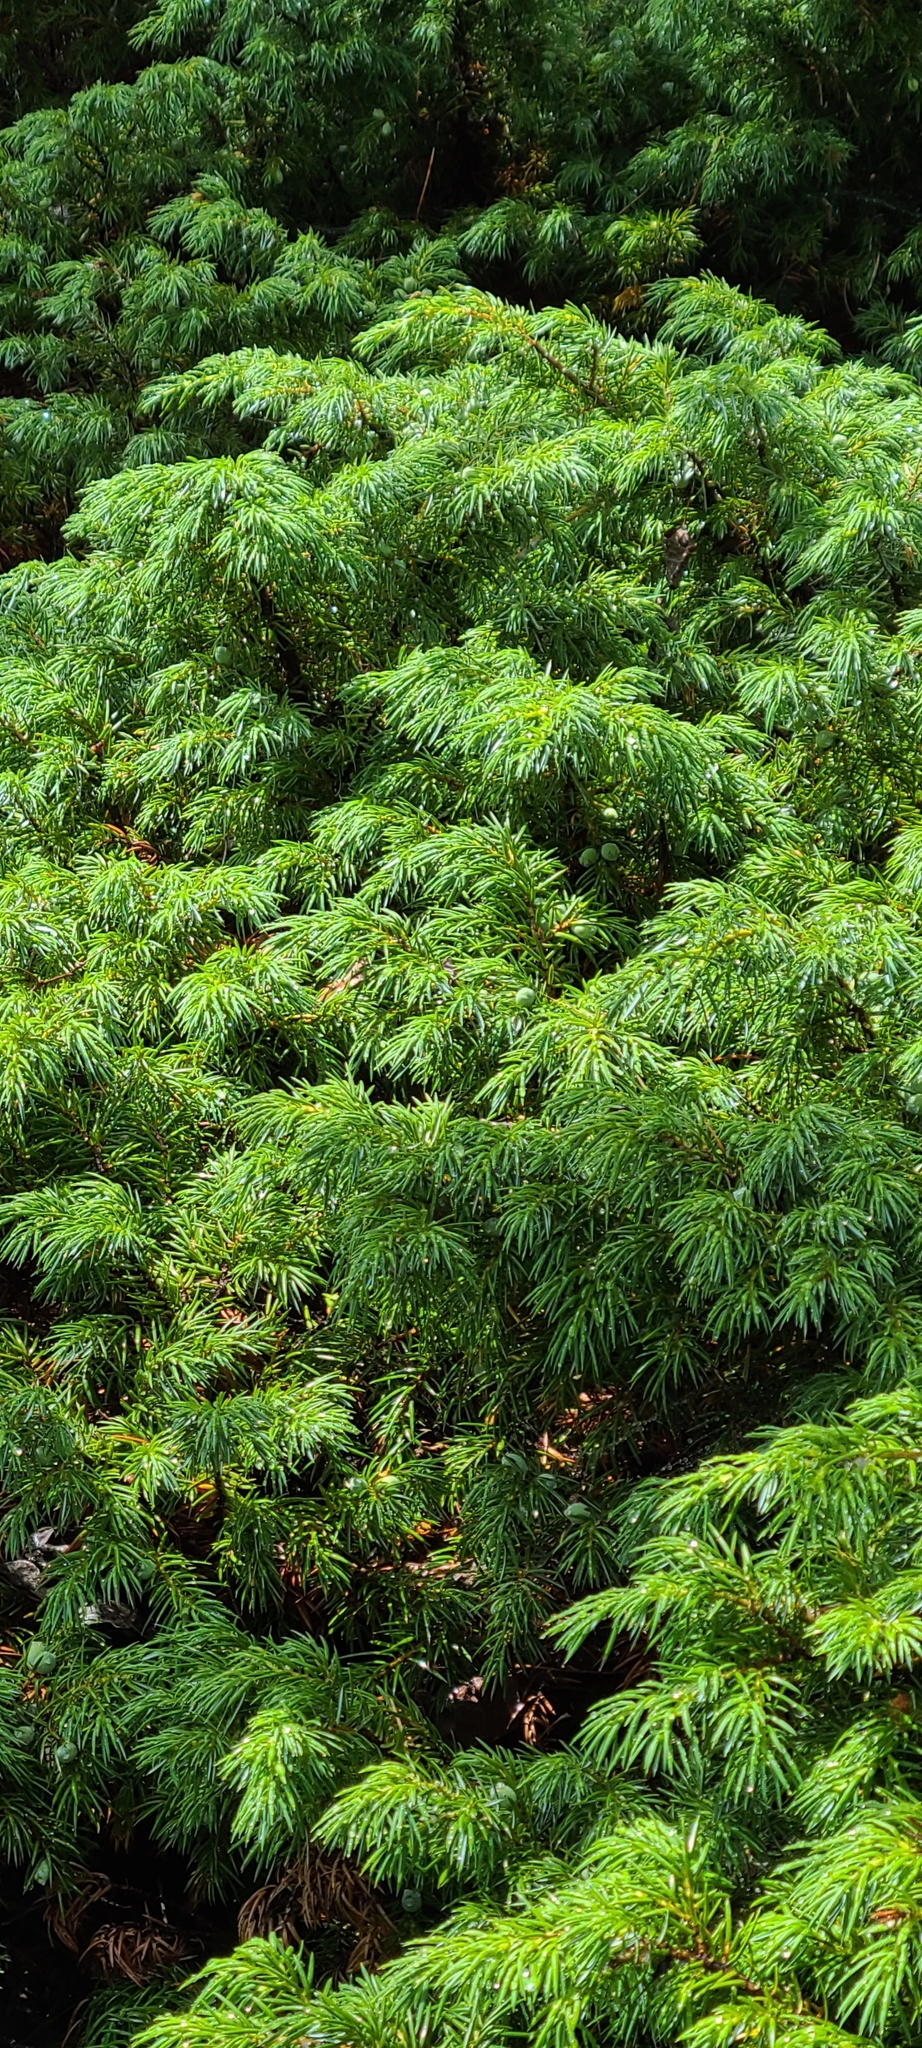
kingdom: Plantae
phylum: Tracheophyta
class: Pinopsida
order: Pinales
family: Cupressaceae
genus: Juniperus
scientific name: Juniperus communis
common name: Common juniper
